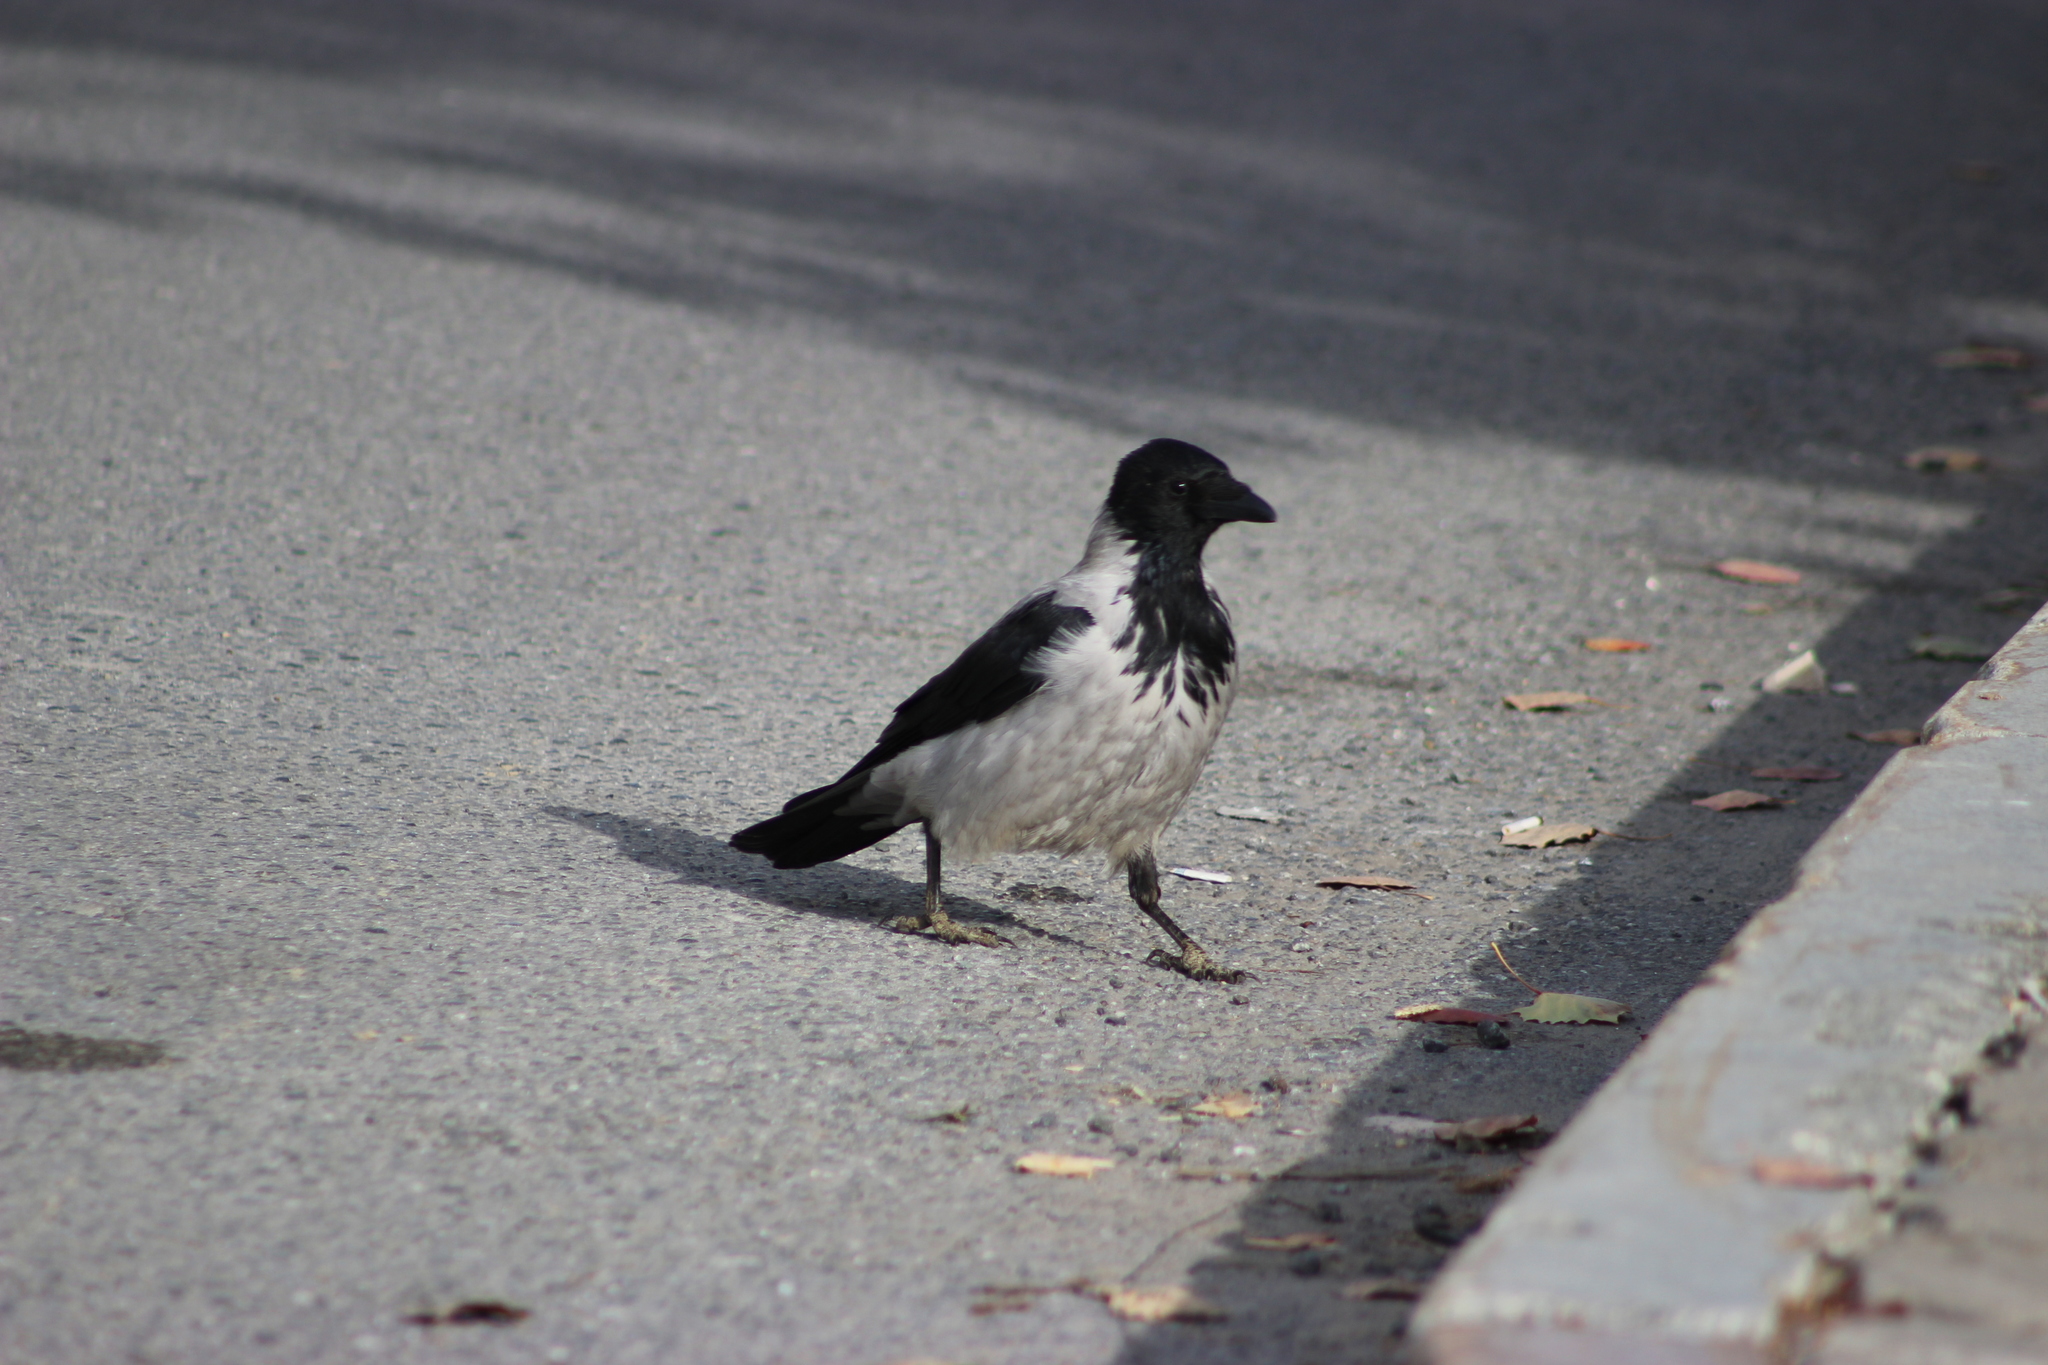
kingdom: Animalia
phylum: Chordata
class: Aves
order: Passeriformes
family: Corvidae
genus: Corvus
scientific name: Corvus cornix
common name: Hooded crow
